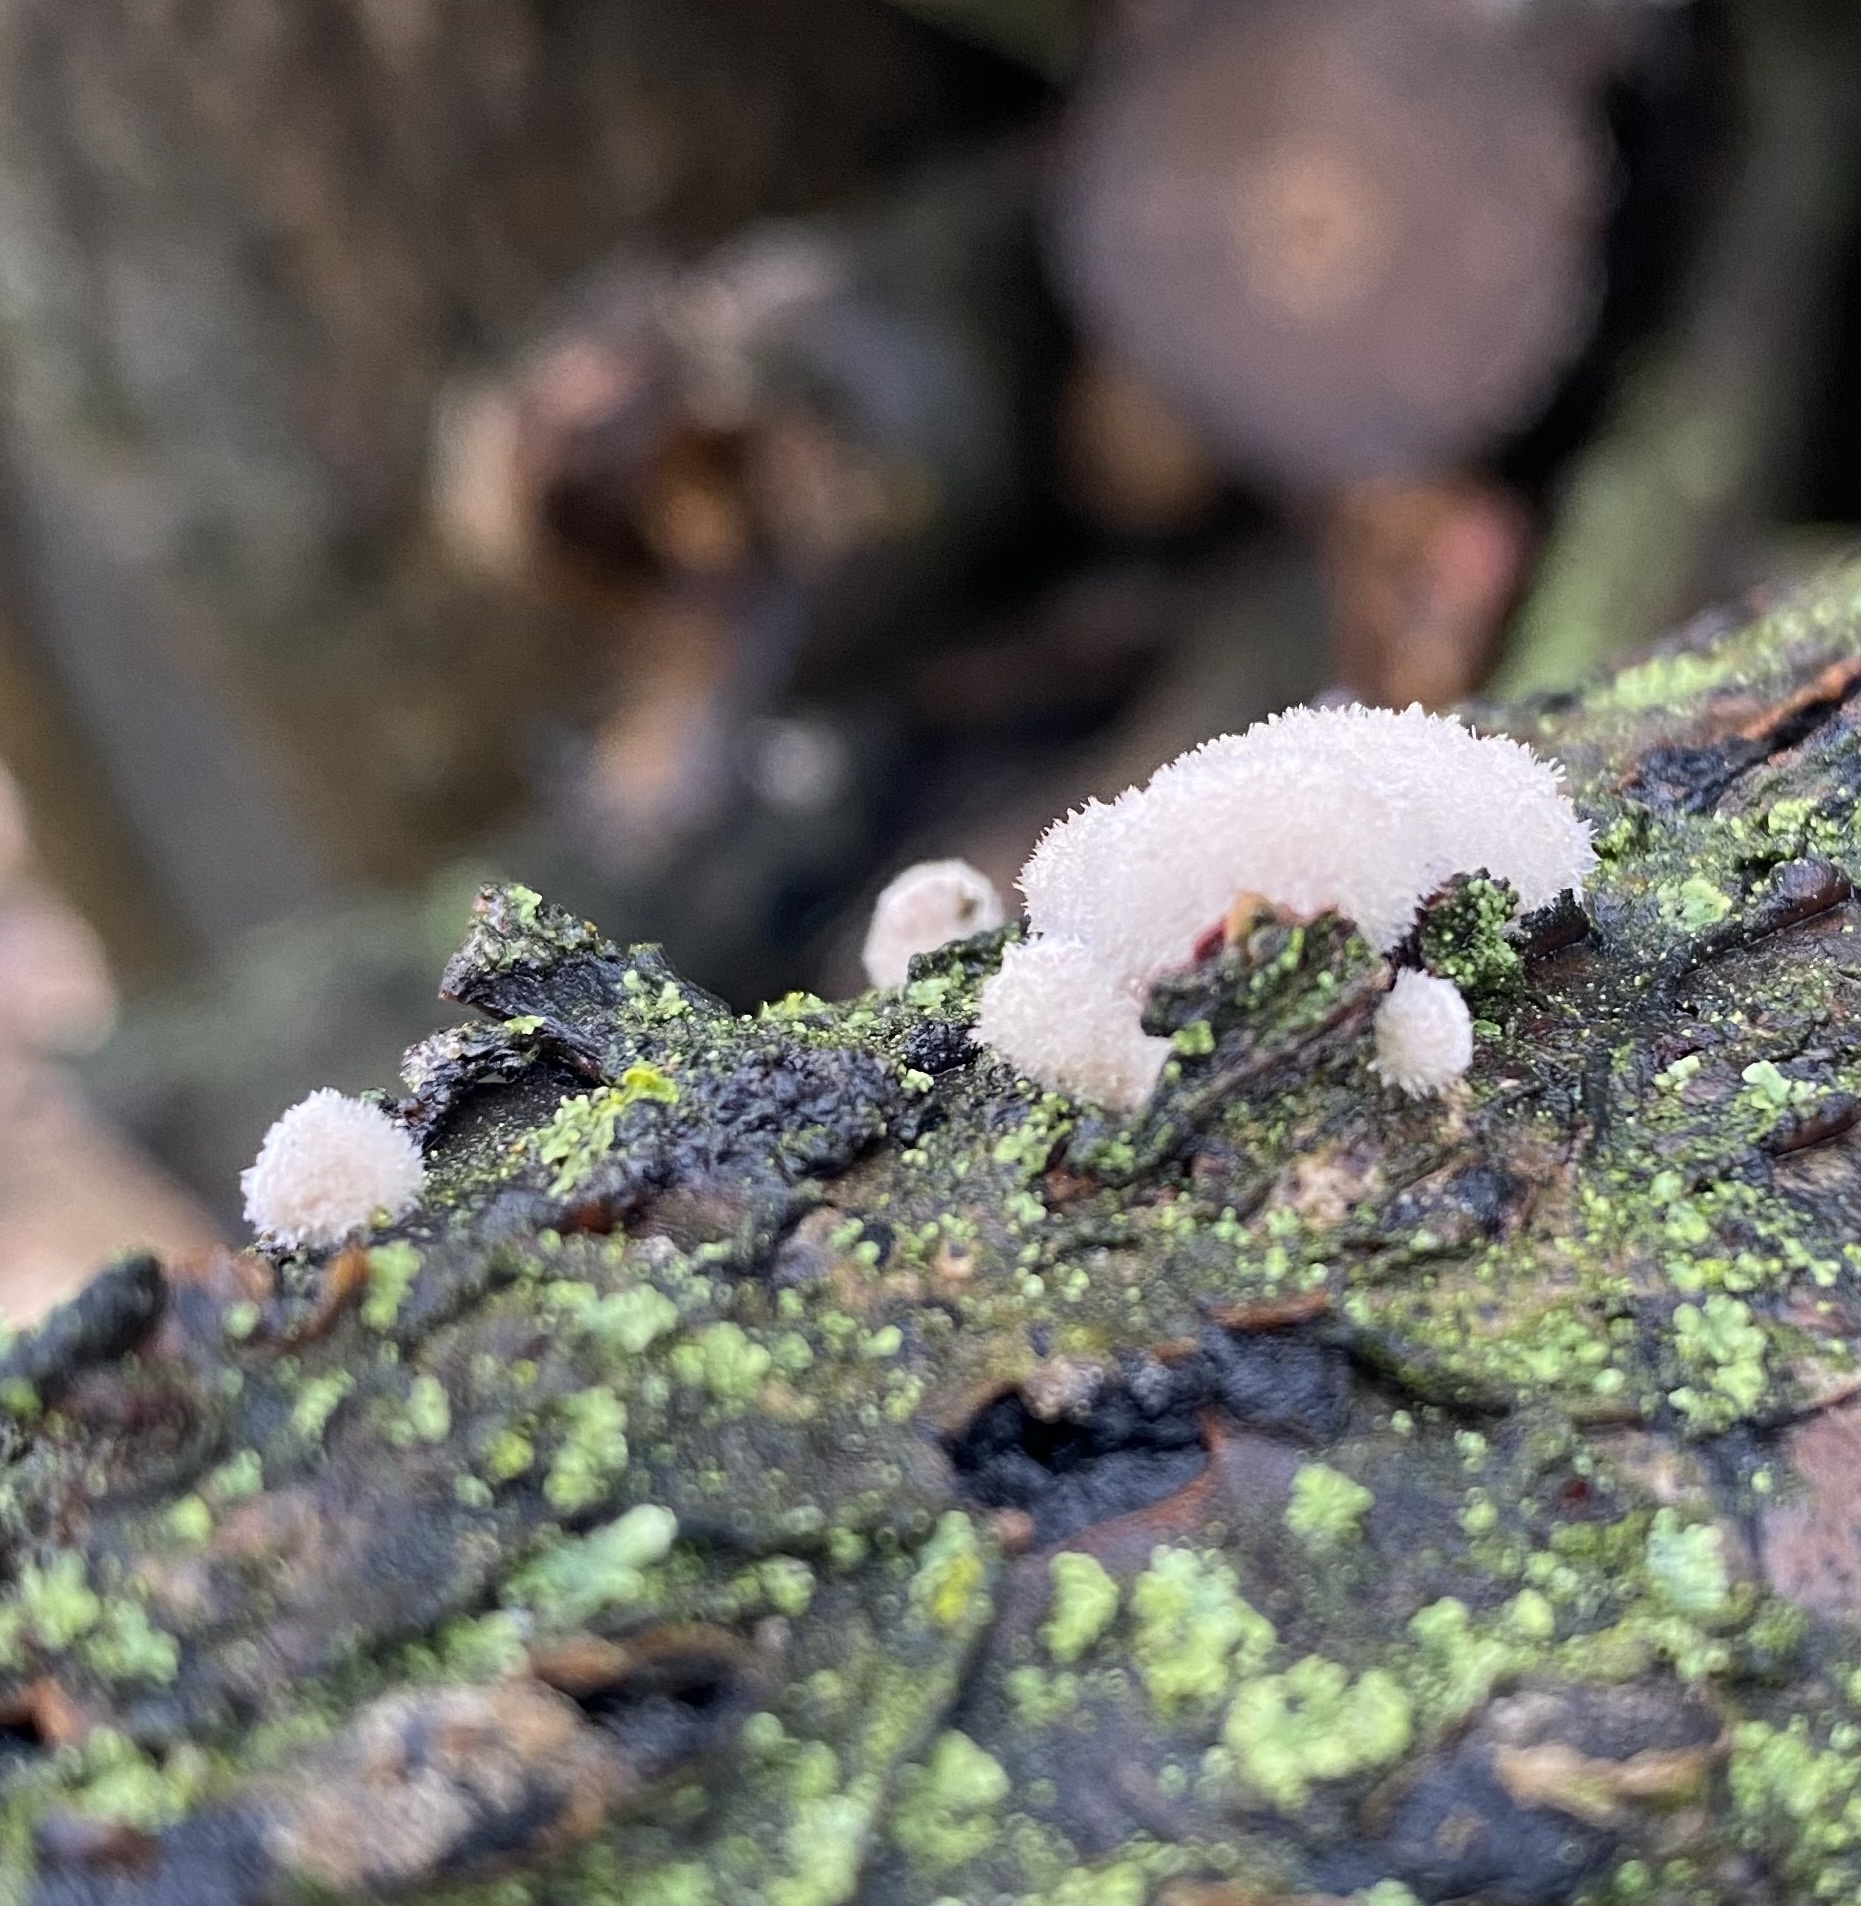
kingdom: Fungi
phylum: Basidiomycota
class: Agaricomycetes
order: Agaricales
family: Schizophyllaceae
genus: Schizophyllum
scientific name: Schizophyllum commune
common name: Common porecrust
